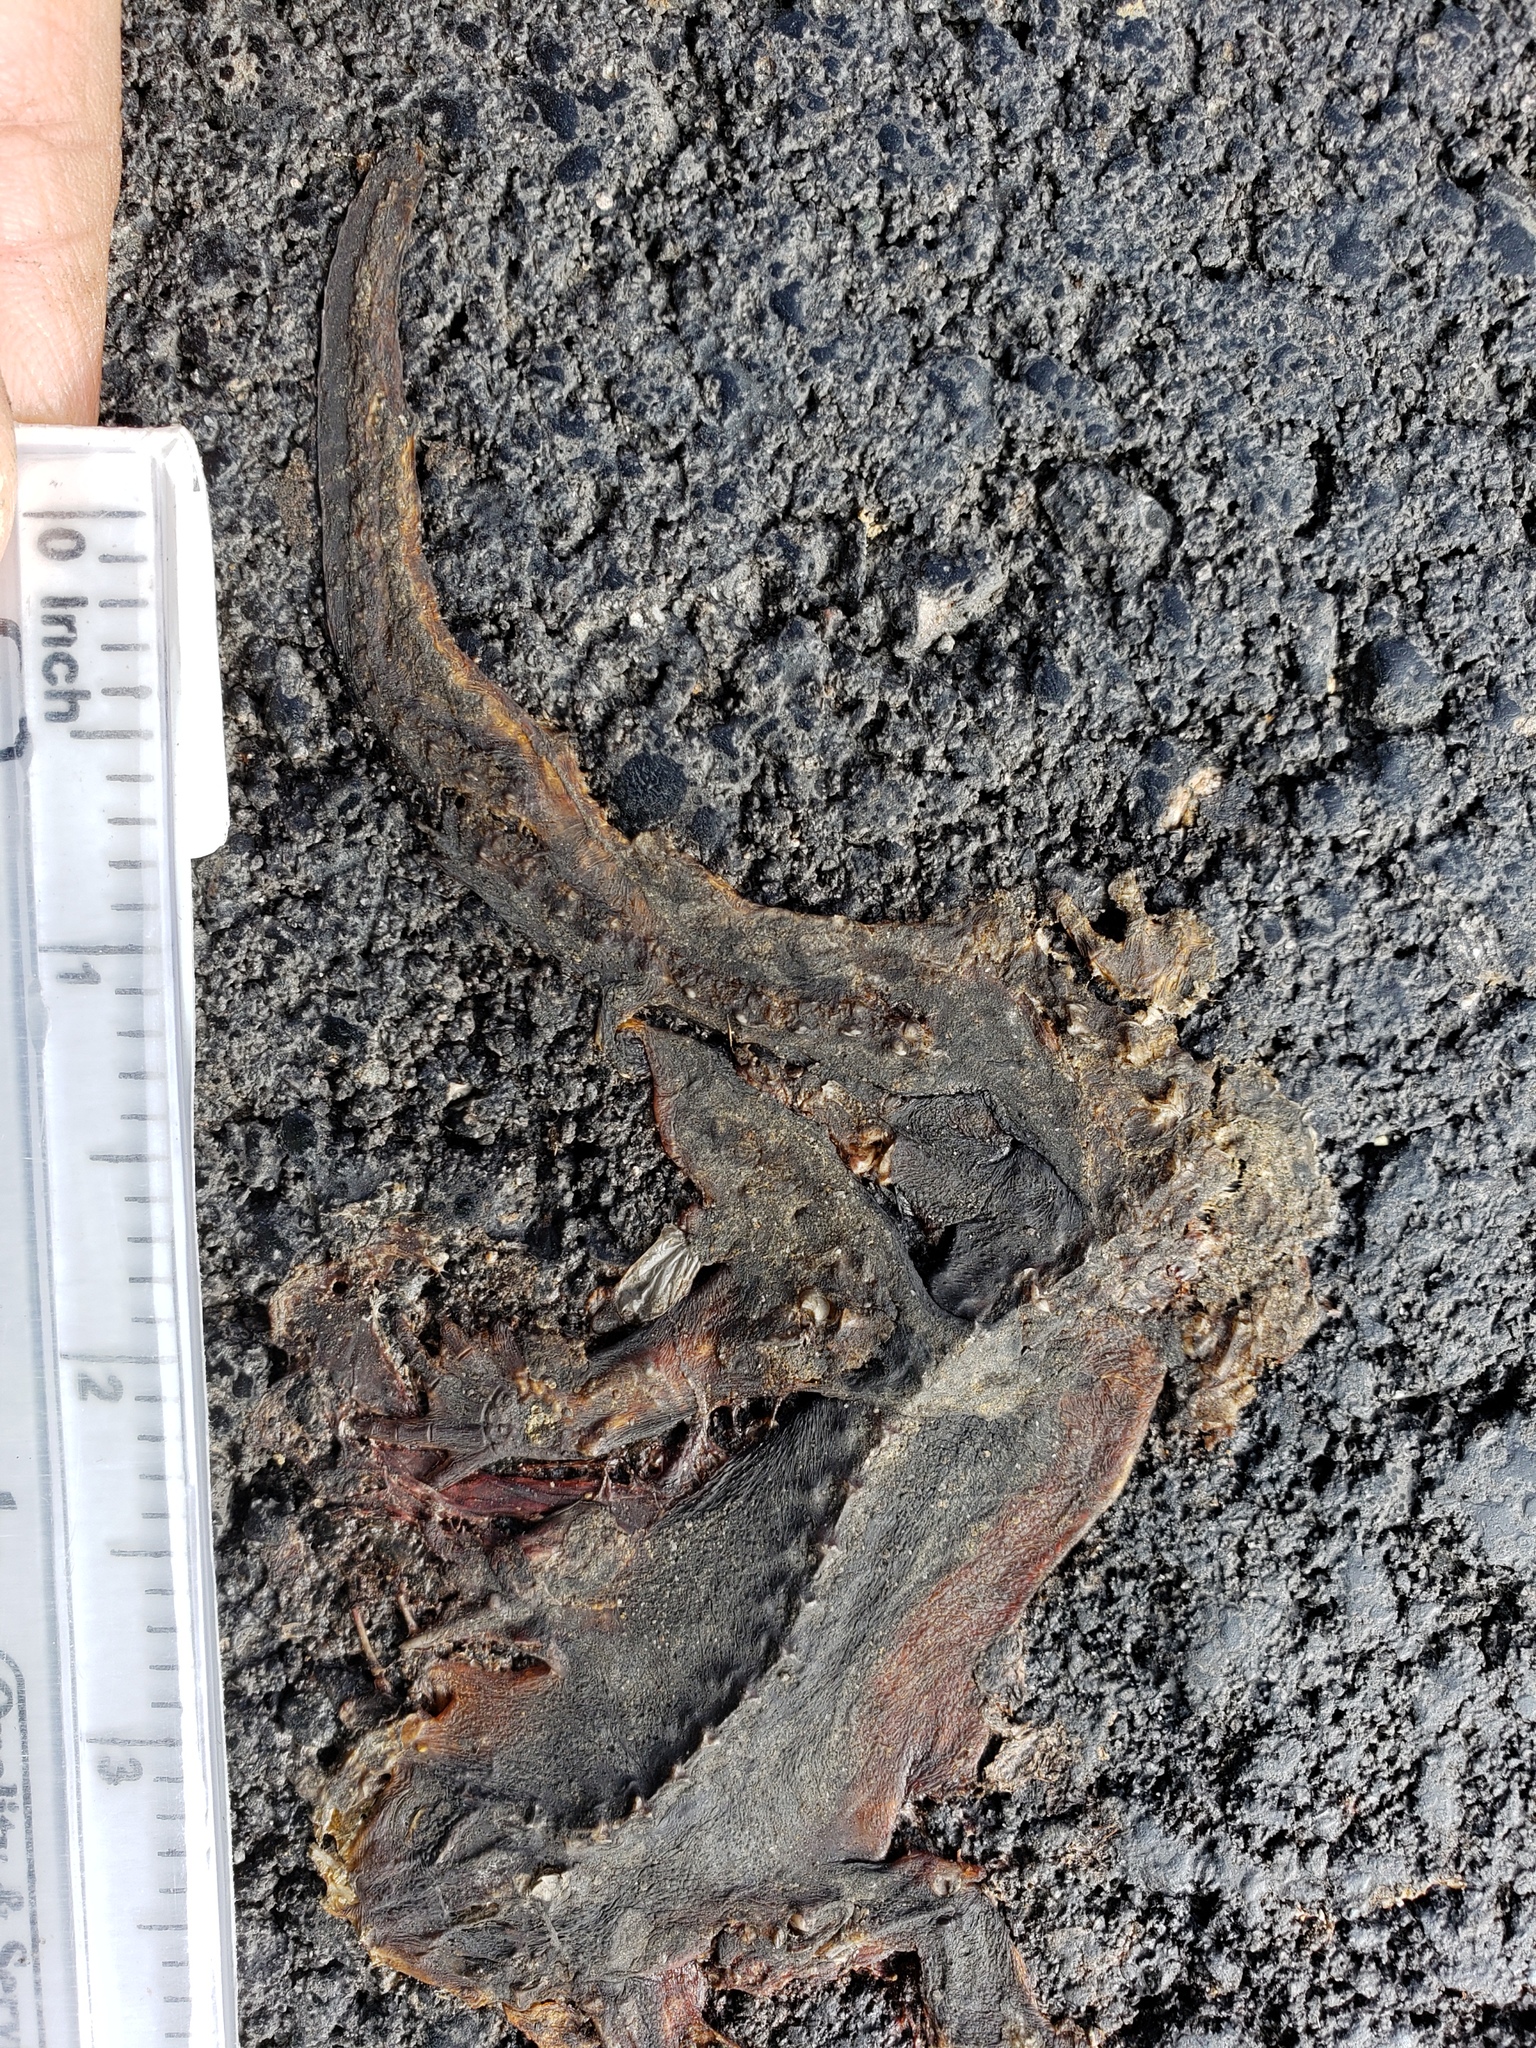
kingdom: Animalia
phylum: Chordata
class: Amphibia
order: Caudata
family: Salamandridae
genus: Taricha
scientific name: Taricha
